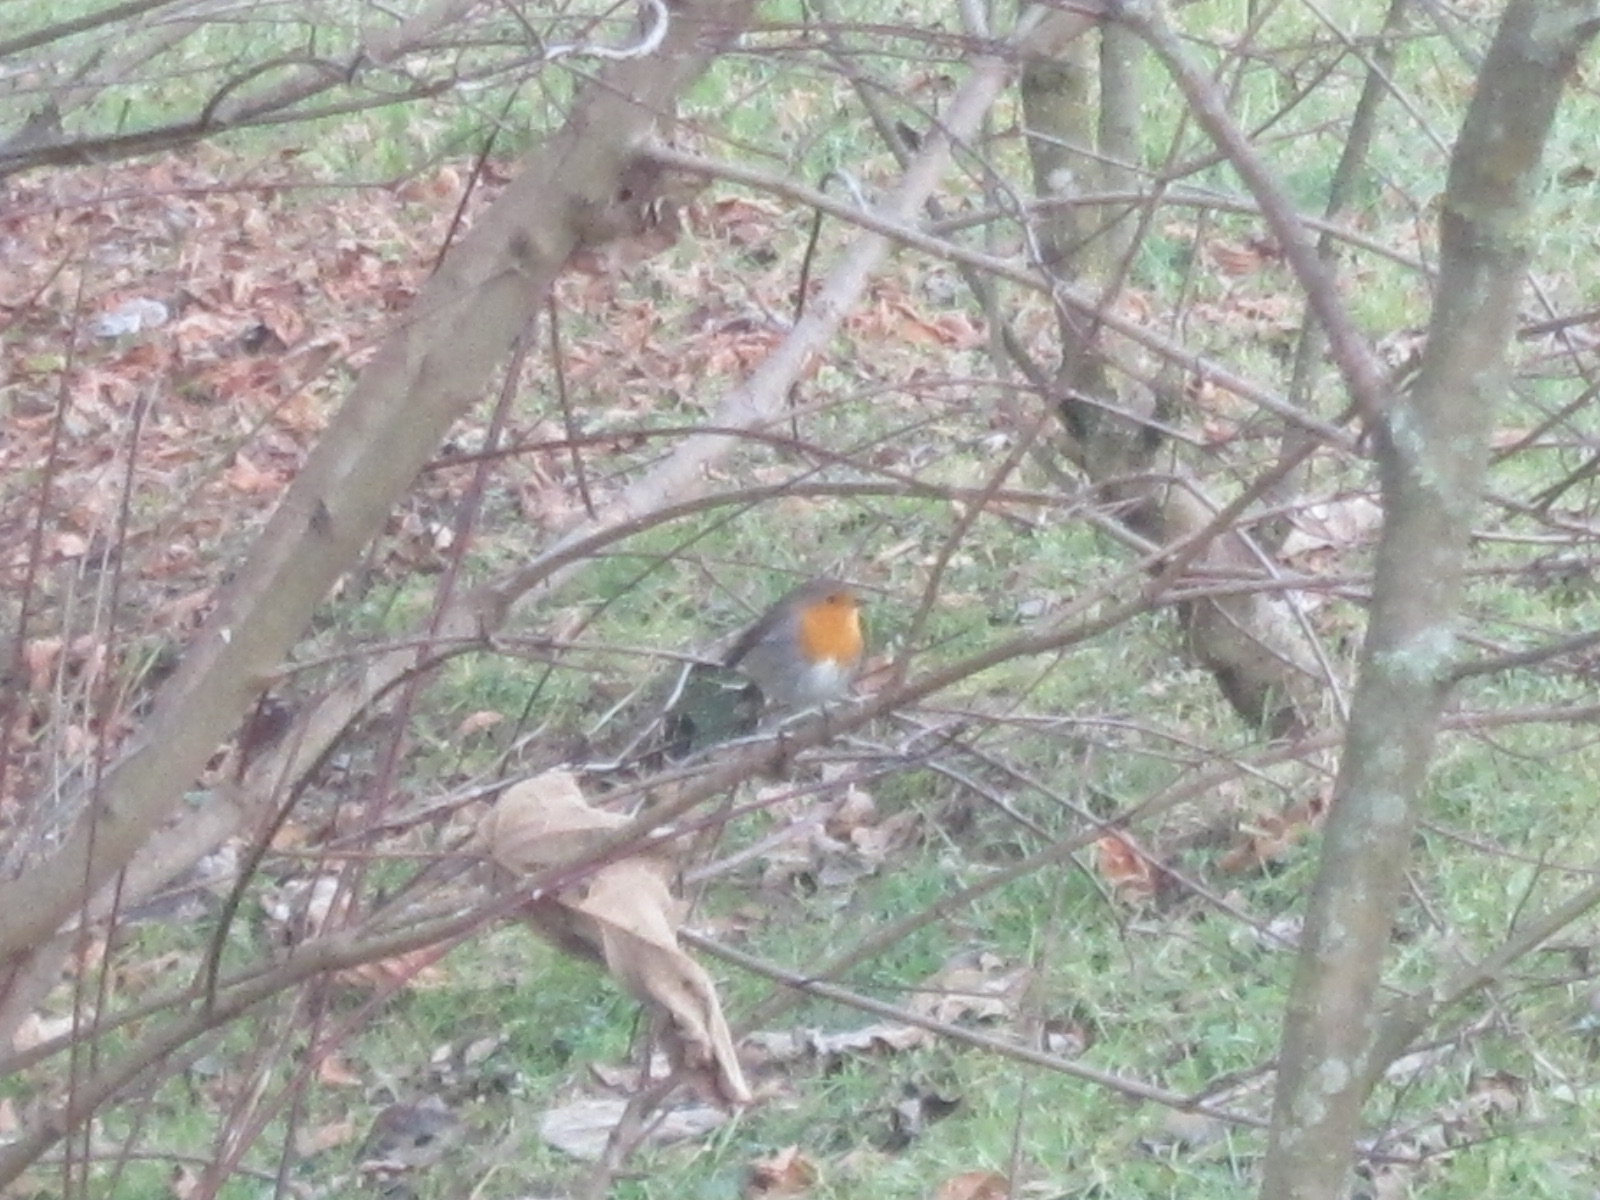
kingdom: Animalia
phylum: Chordata
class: Aves
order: Passeriformes
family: Muscicapidae
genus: Erithacus
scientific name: Erithacus rubecula
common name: European robin
